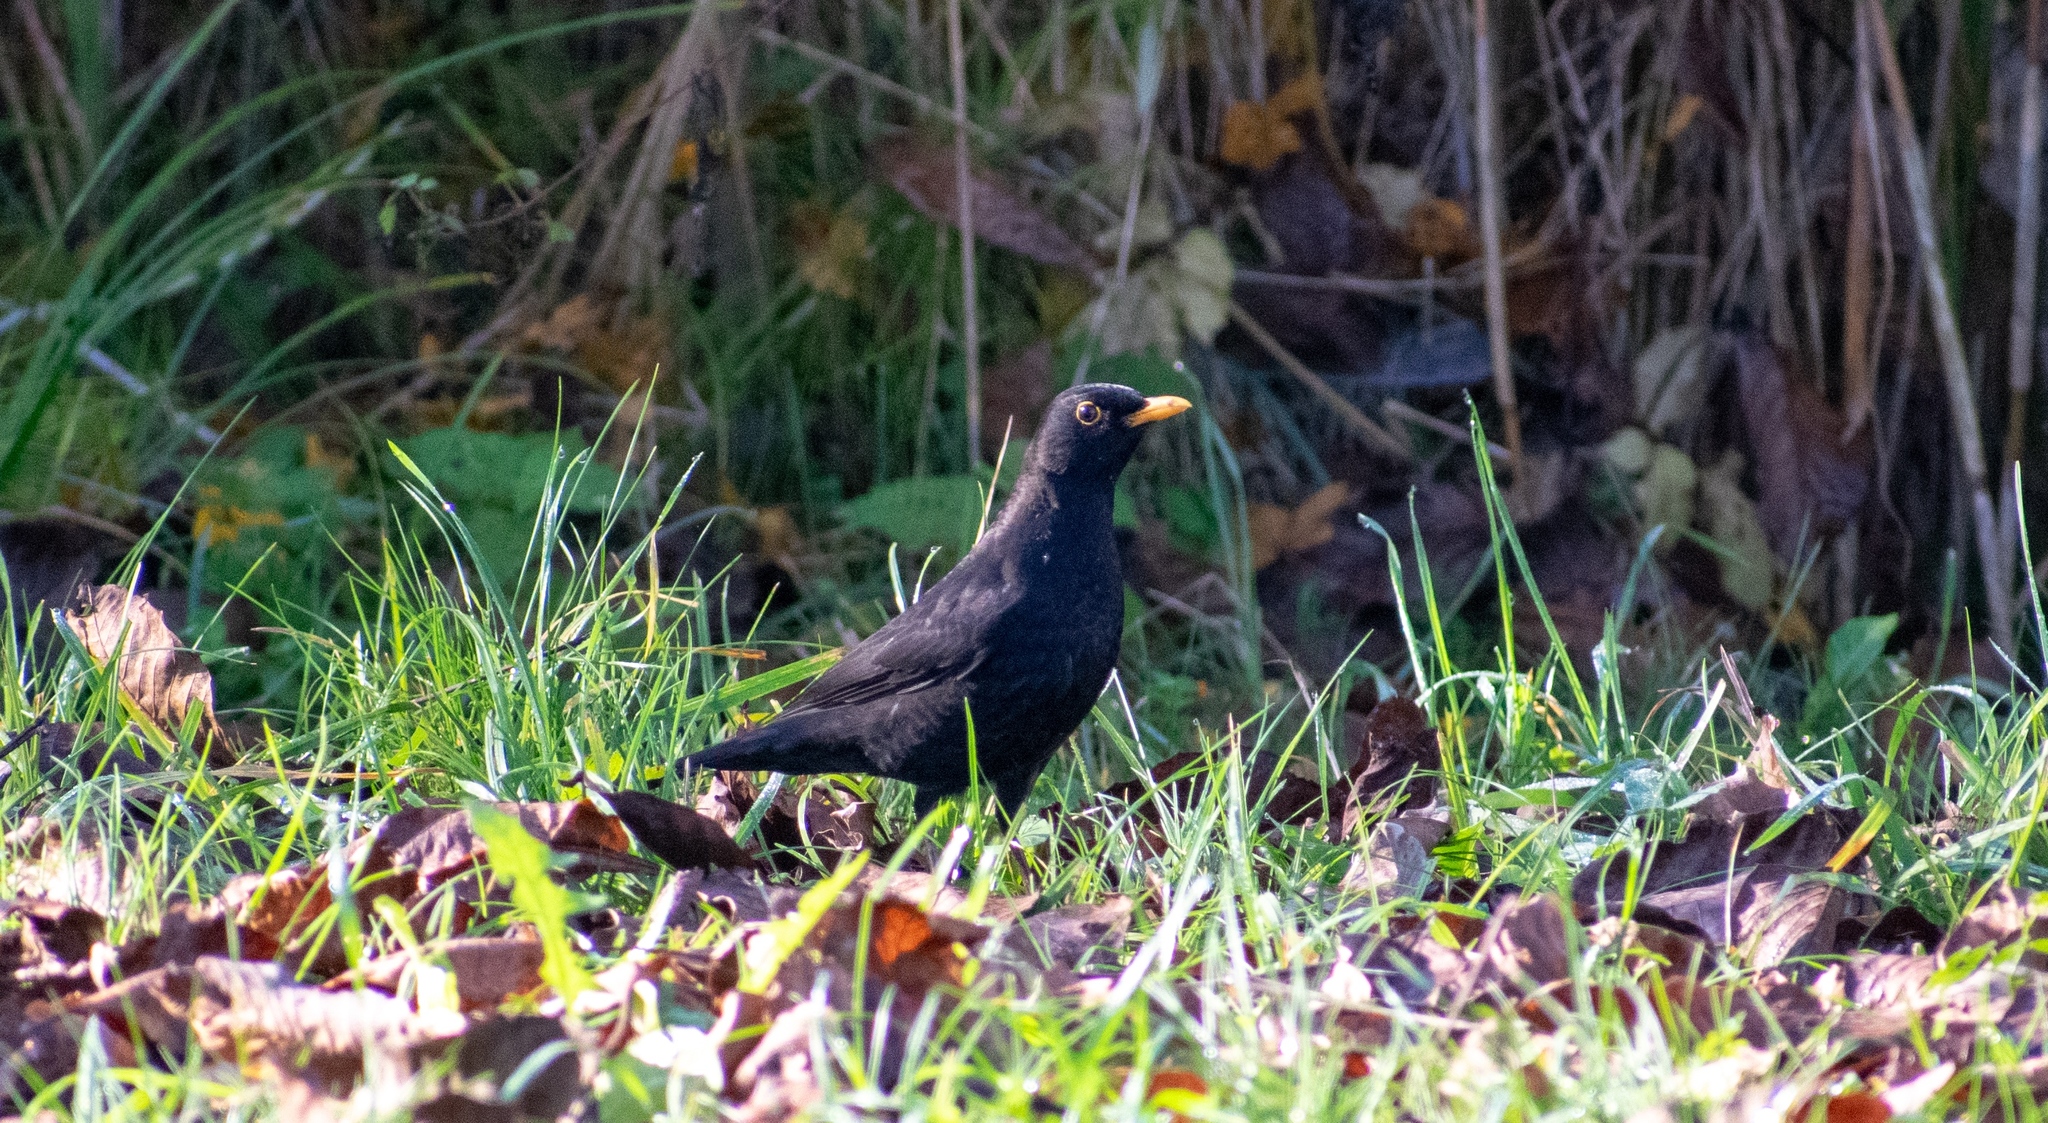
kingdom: Animalia
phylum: Chordata
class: Aves
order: Passeriformes
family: Turdidae
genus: Turdus
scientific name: Turdus merula
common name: Common blackbird
